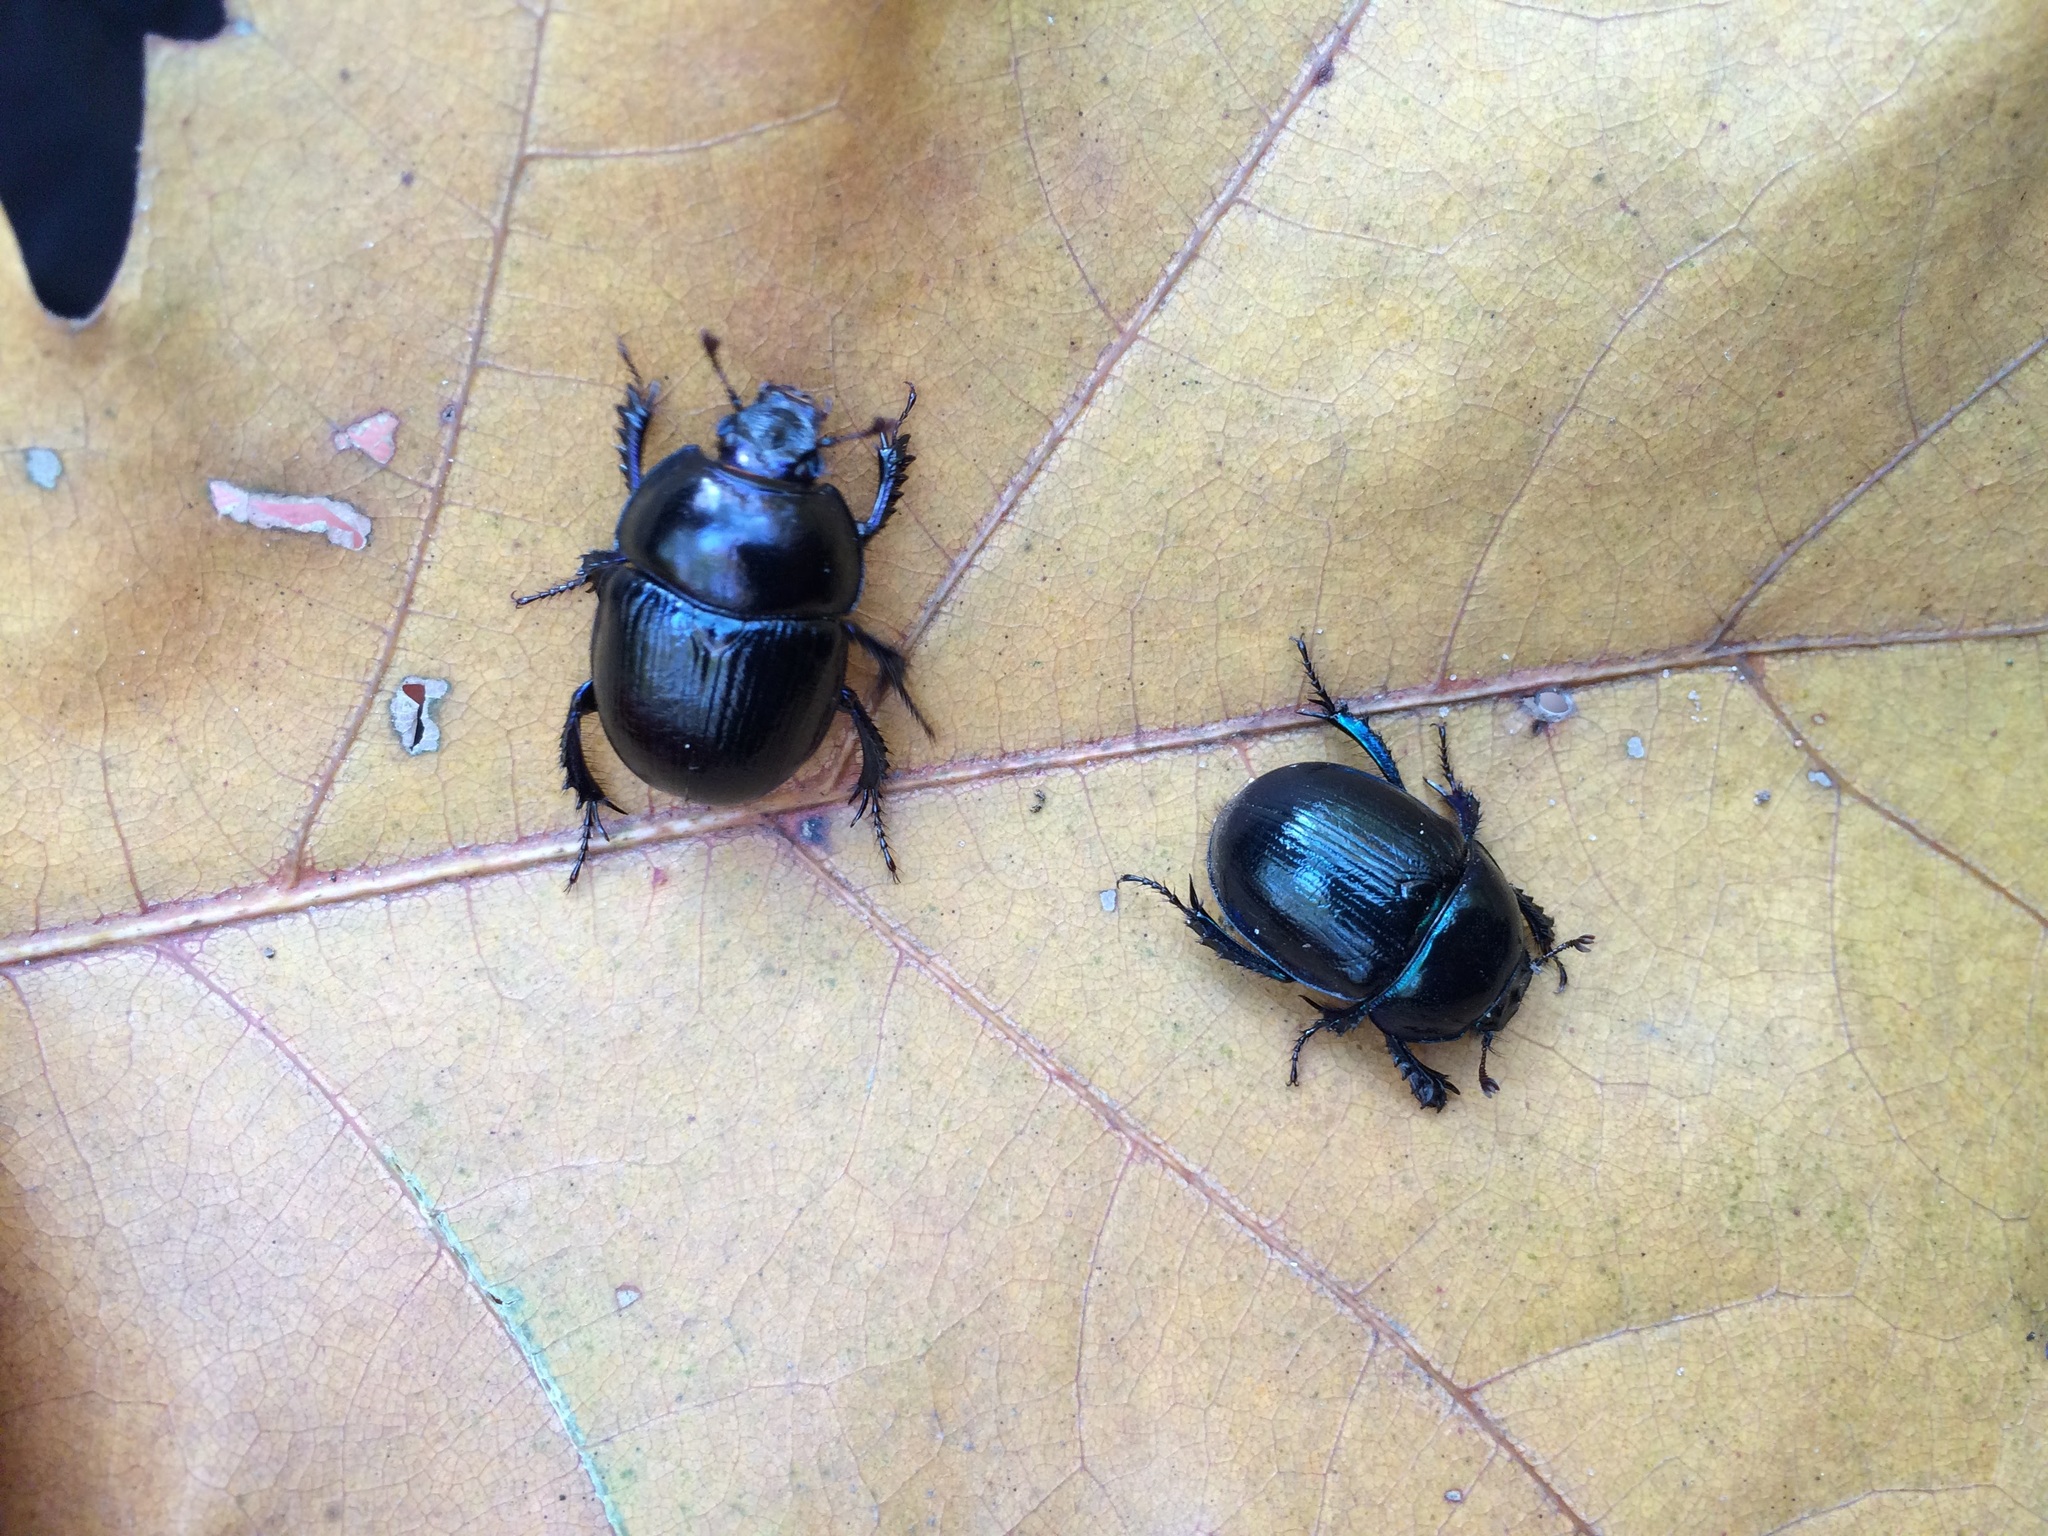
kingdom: Animalia
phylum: Arthropoda
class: Insecta
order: Coleoptera
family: Geotrupidae
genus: Anoplotrupes
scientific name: Anoplotrupes stercorosus
